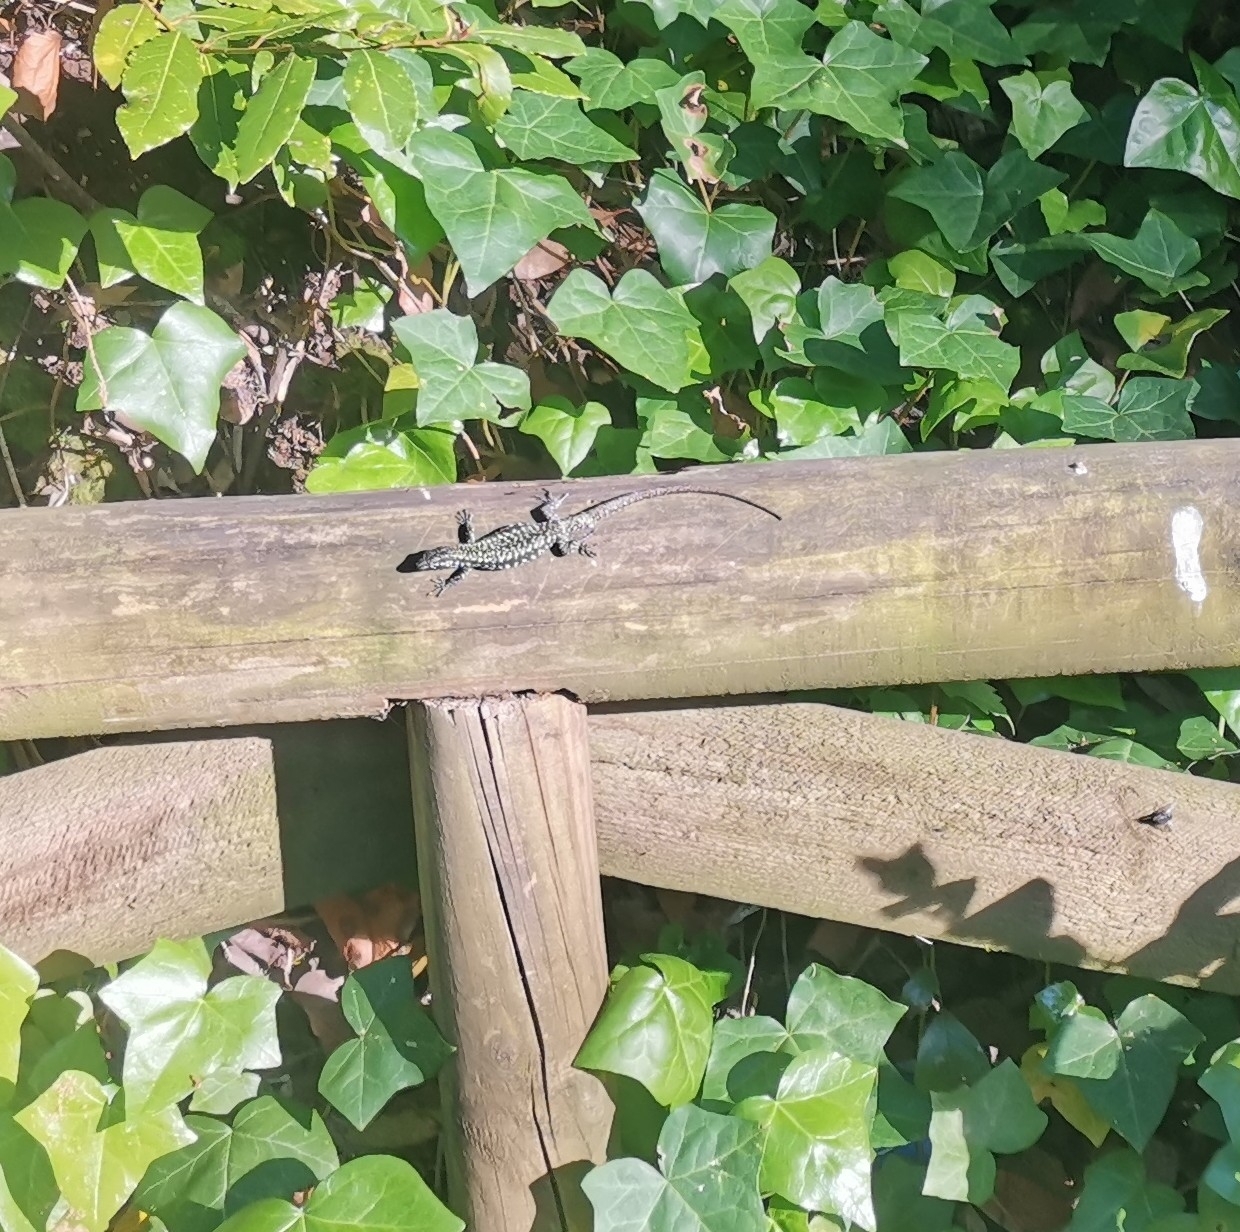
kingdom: Animalia
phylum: Chordata
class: Squamata
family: Lacertidae
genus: Podarcis
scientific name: Podarcis muralis
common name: Common wall lizard
